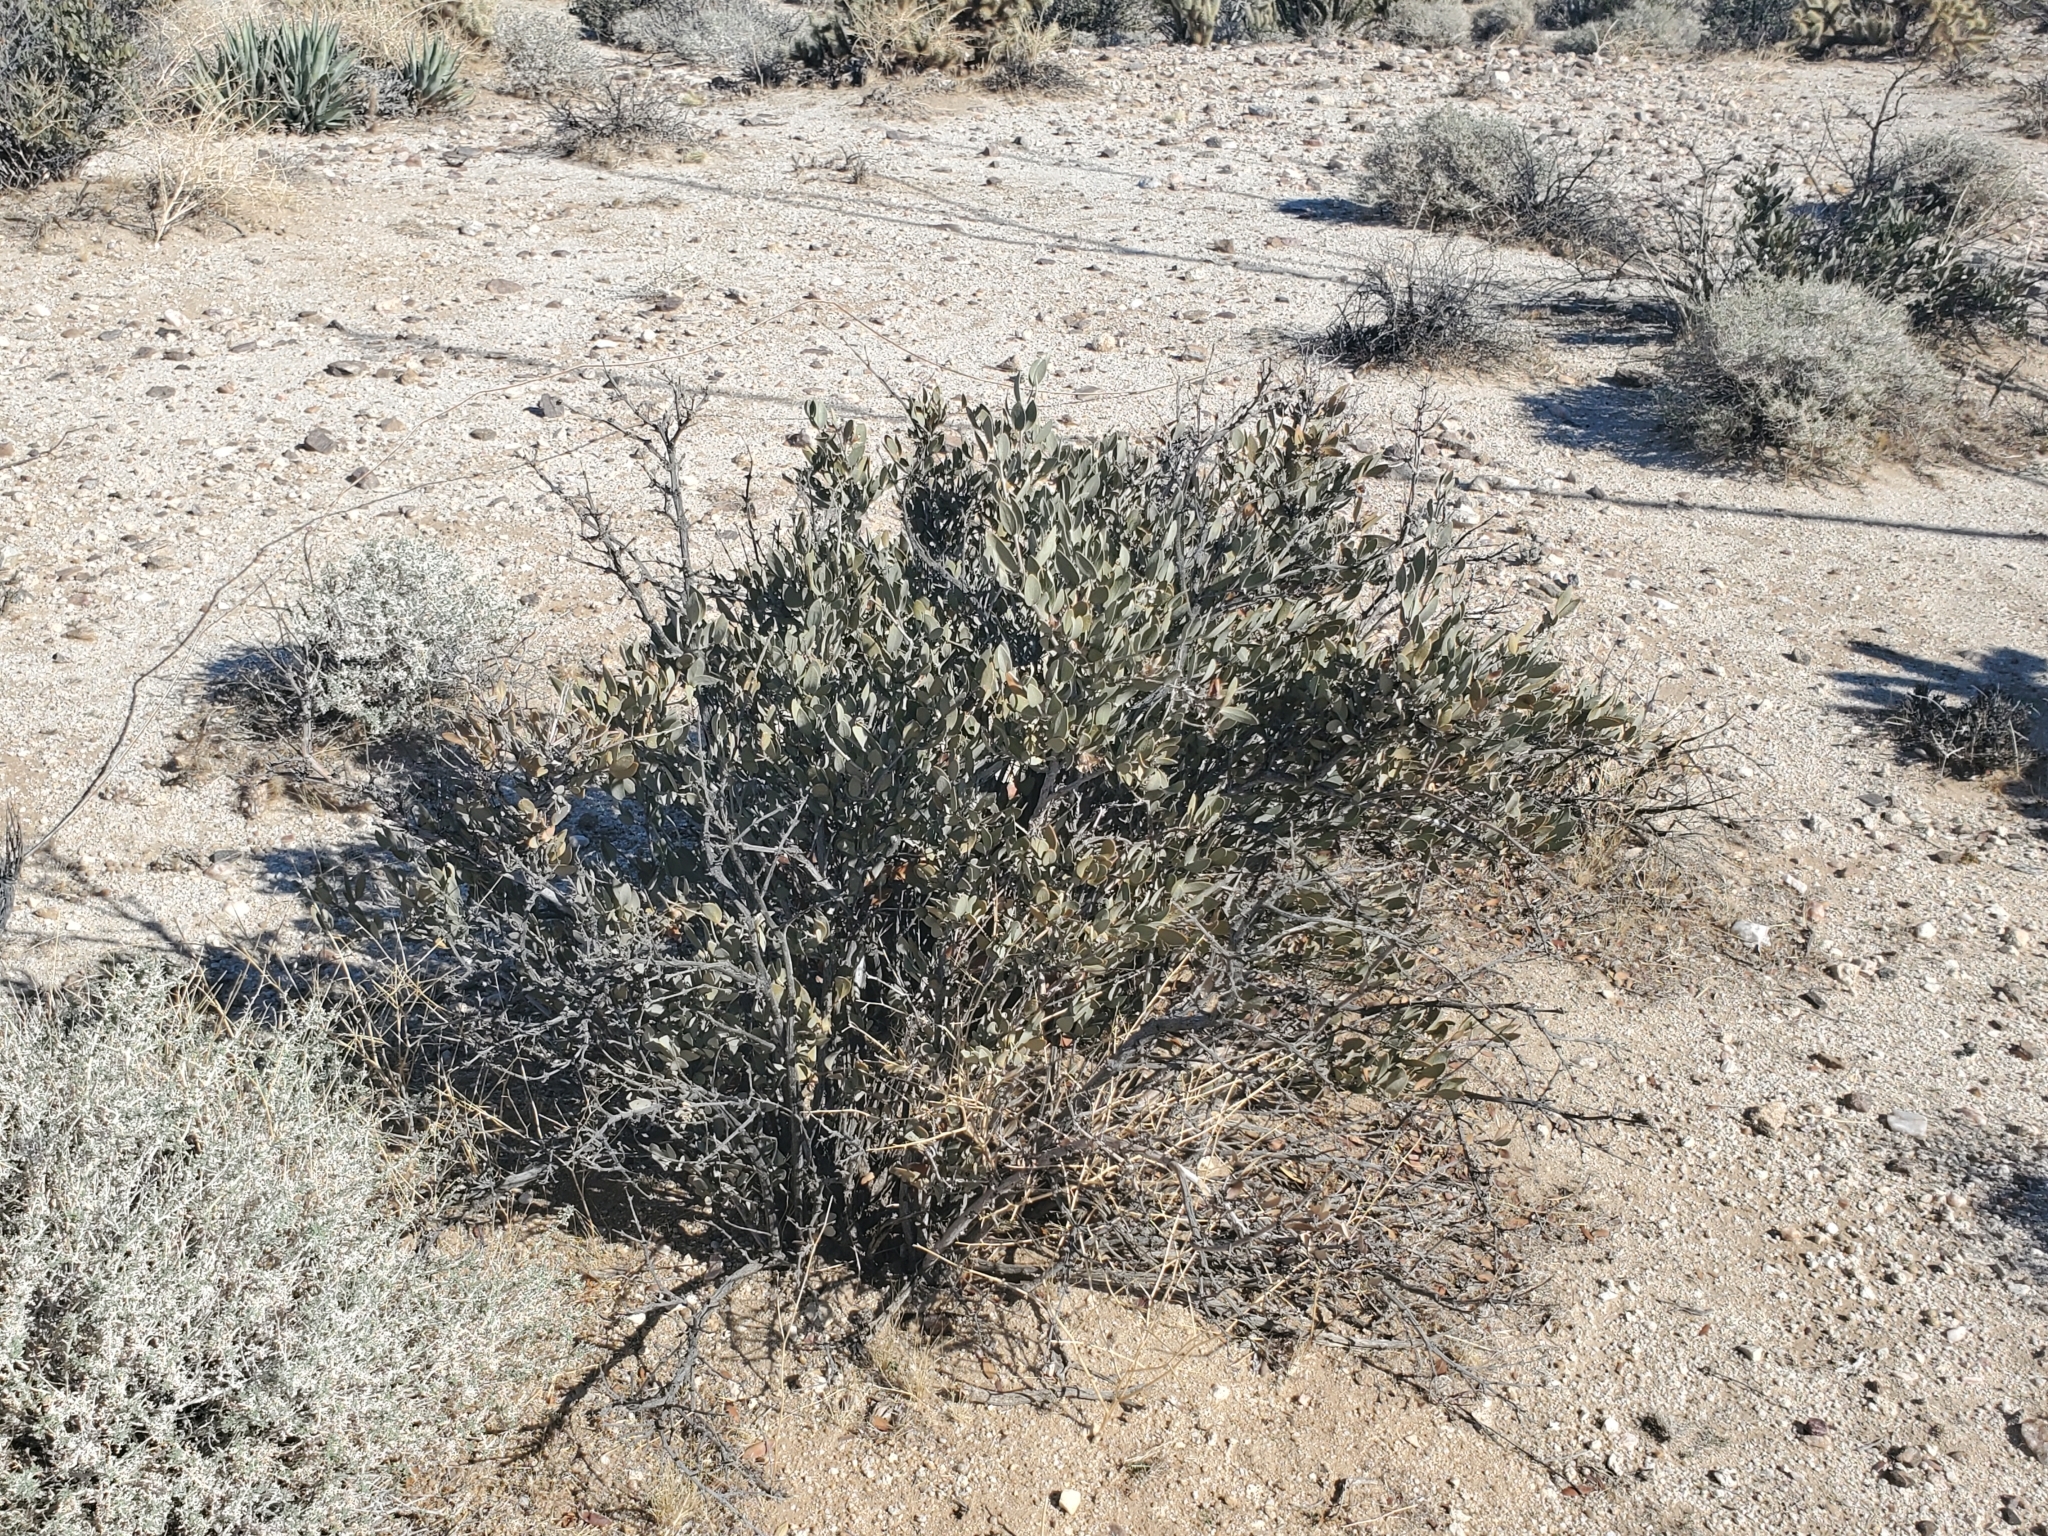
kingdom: Plantae
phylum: Tracheophyta
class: Magnoliopsida
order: Caryophyllales
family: Simmondsiaceae
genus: Simmondsia
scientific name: Simmondsia chinensis
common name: Jojoba
